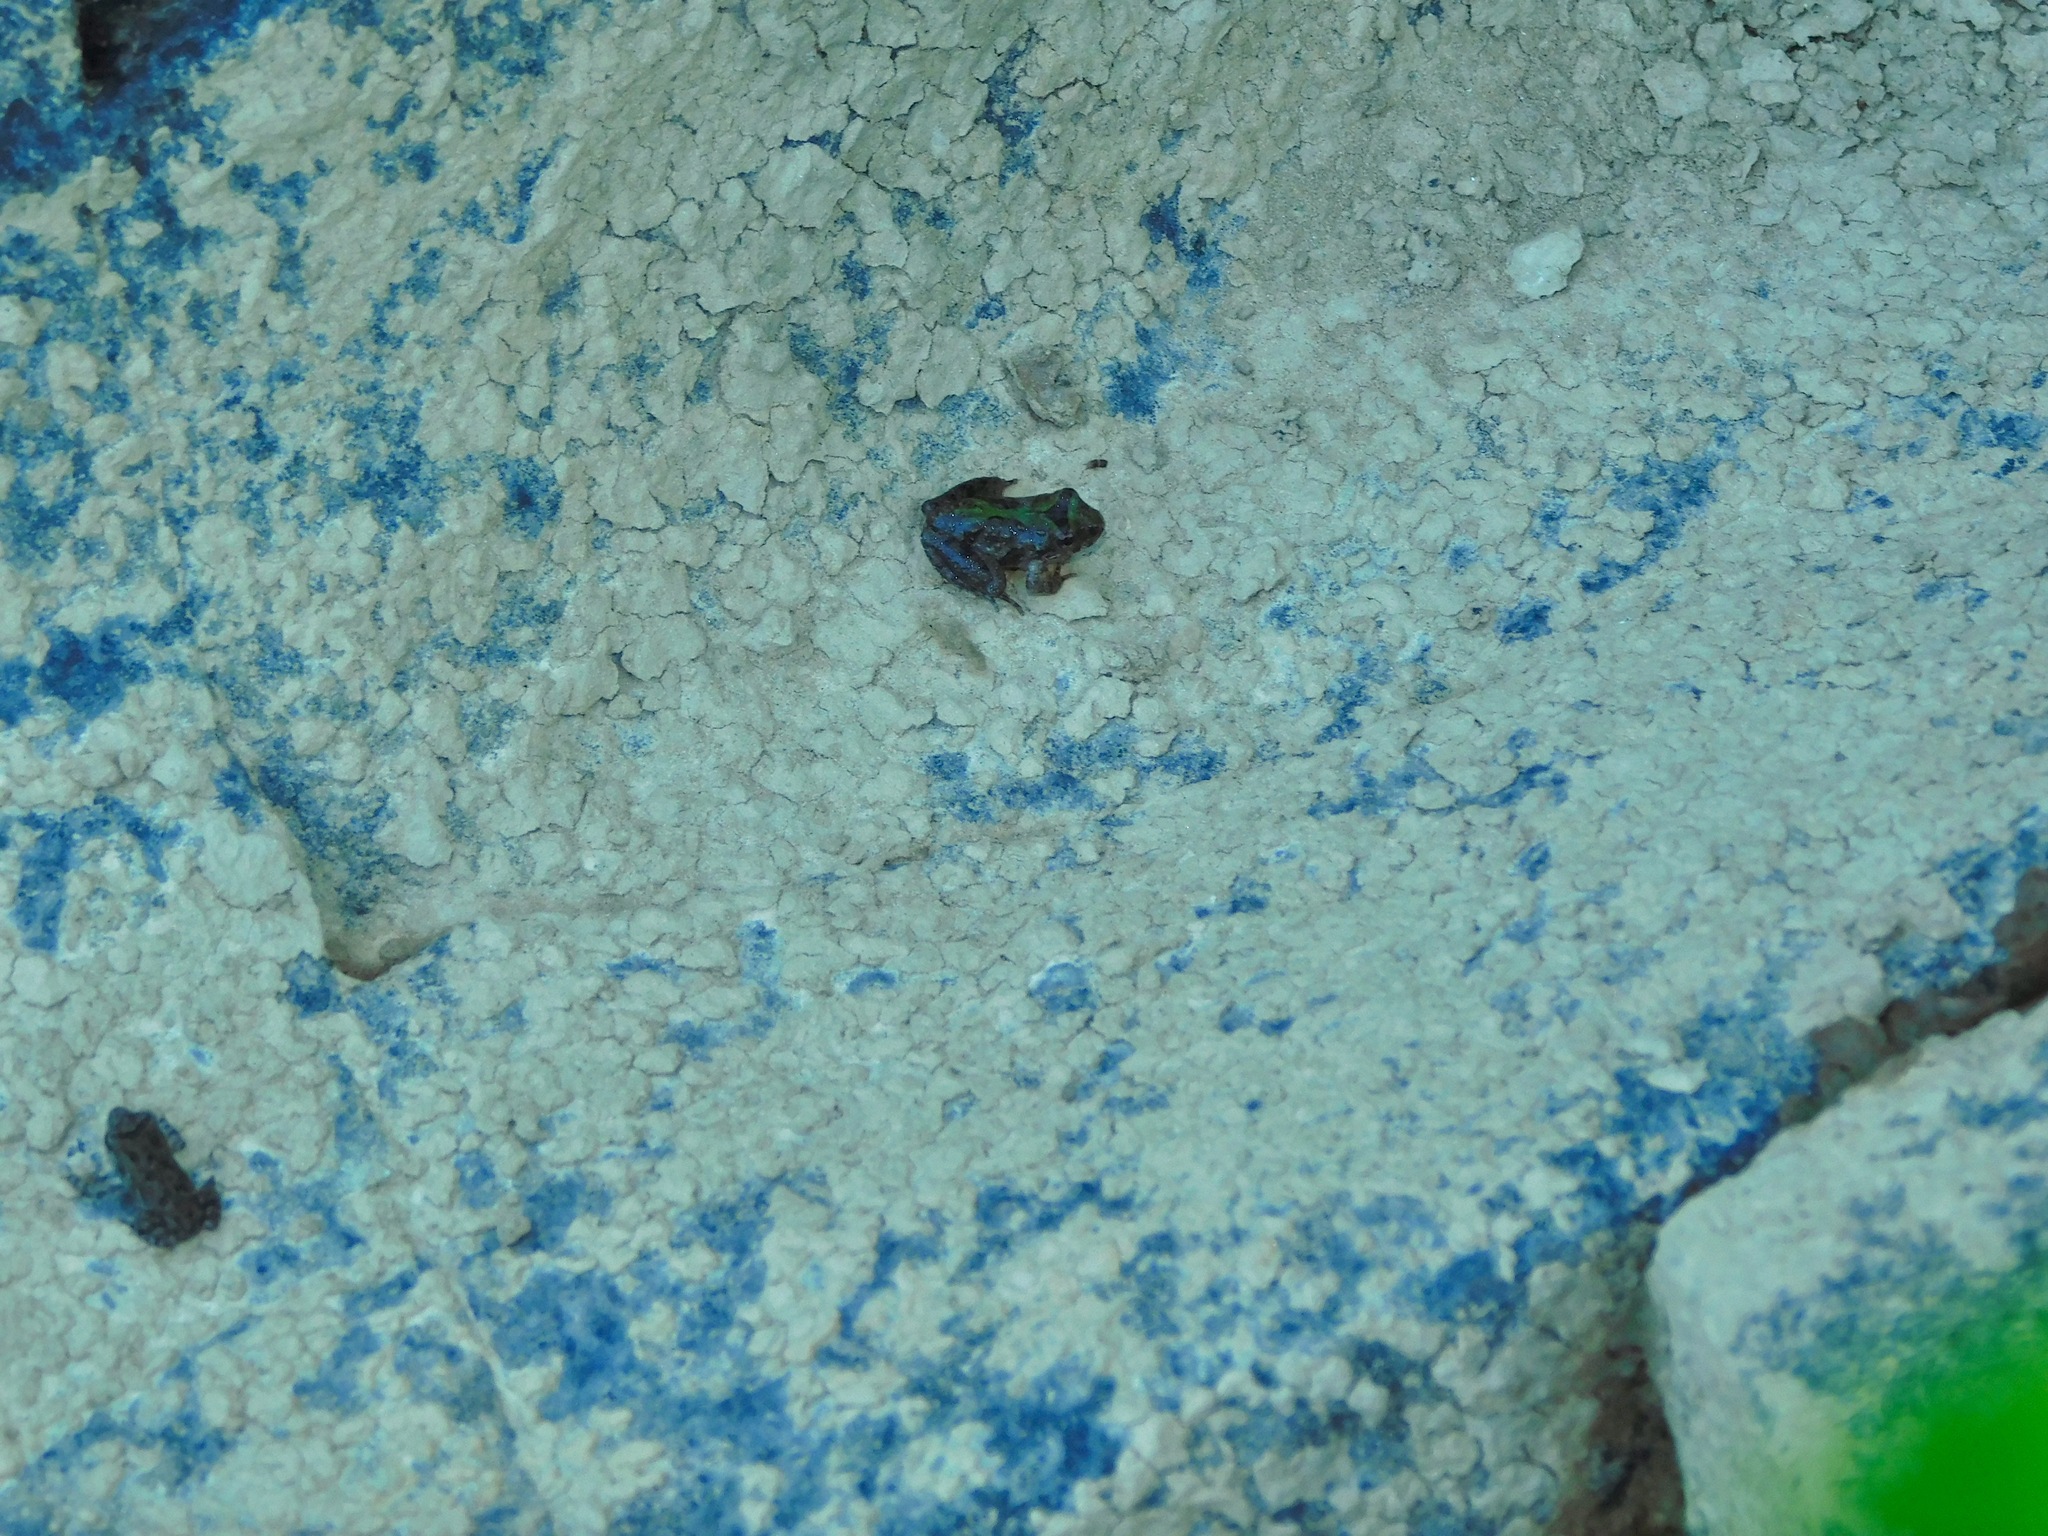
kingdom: Animalia
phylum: Chordata
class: Amphibia
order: Anura
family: Hylidae
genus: Acris
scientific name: Acris crepitans
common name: Northern cricket frog
